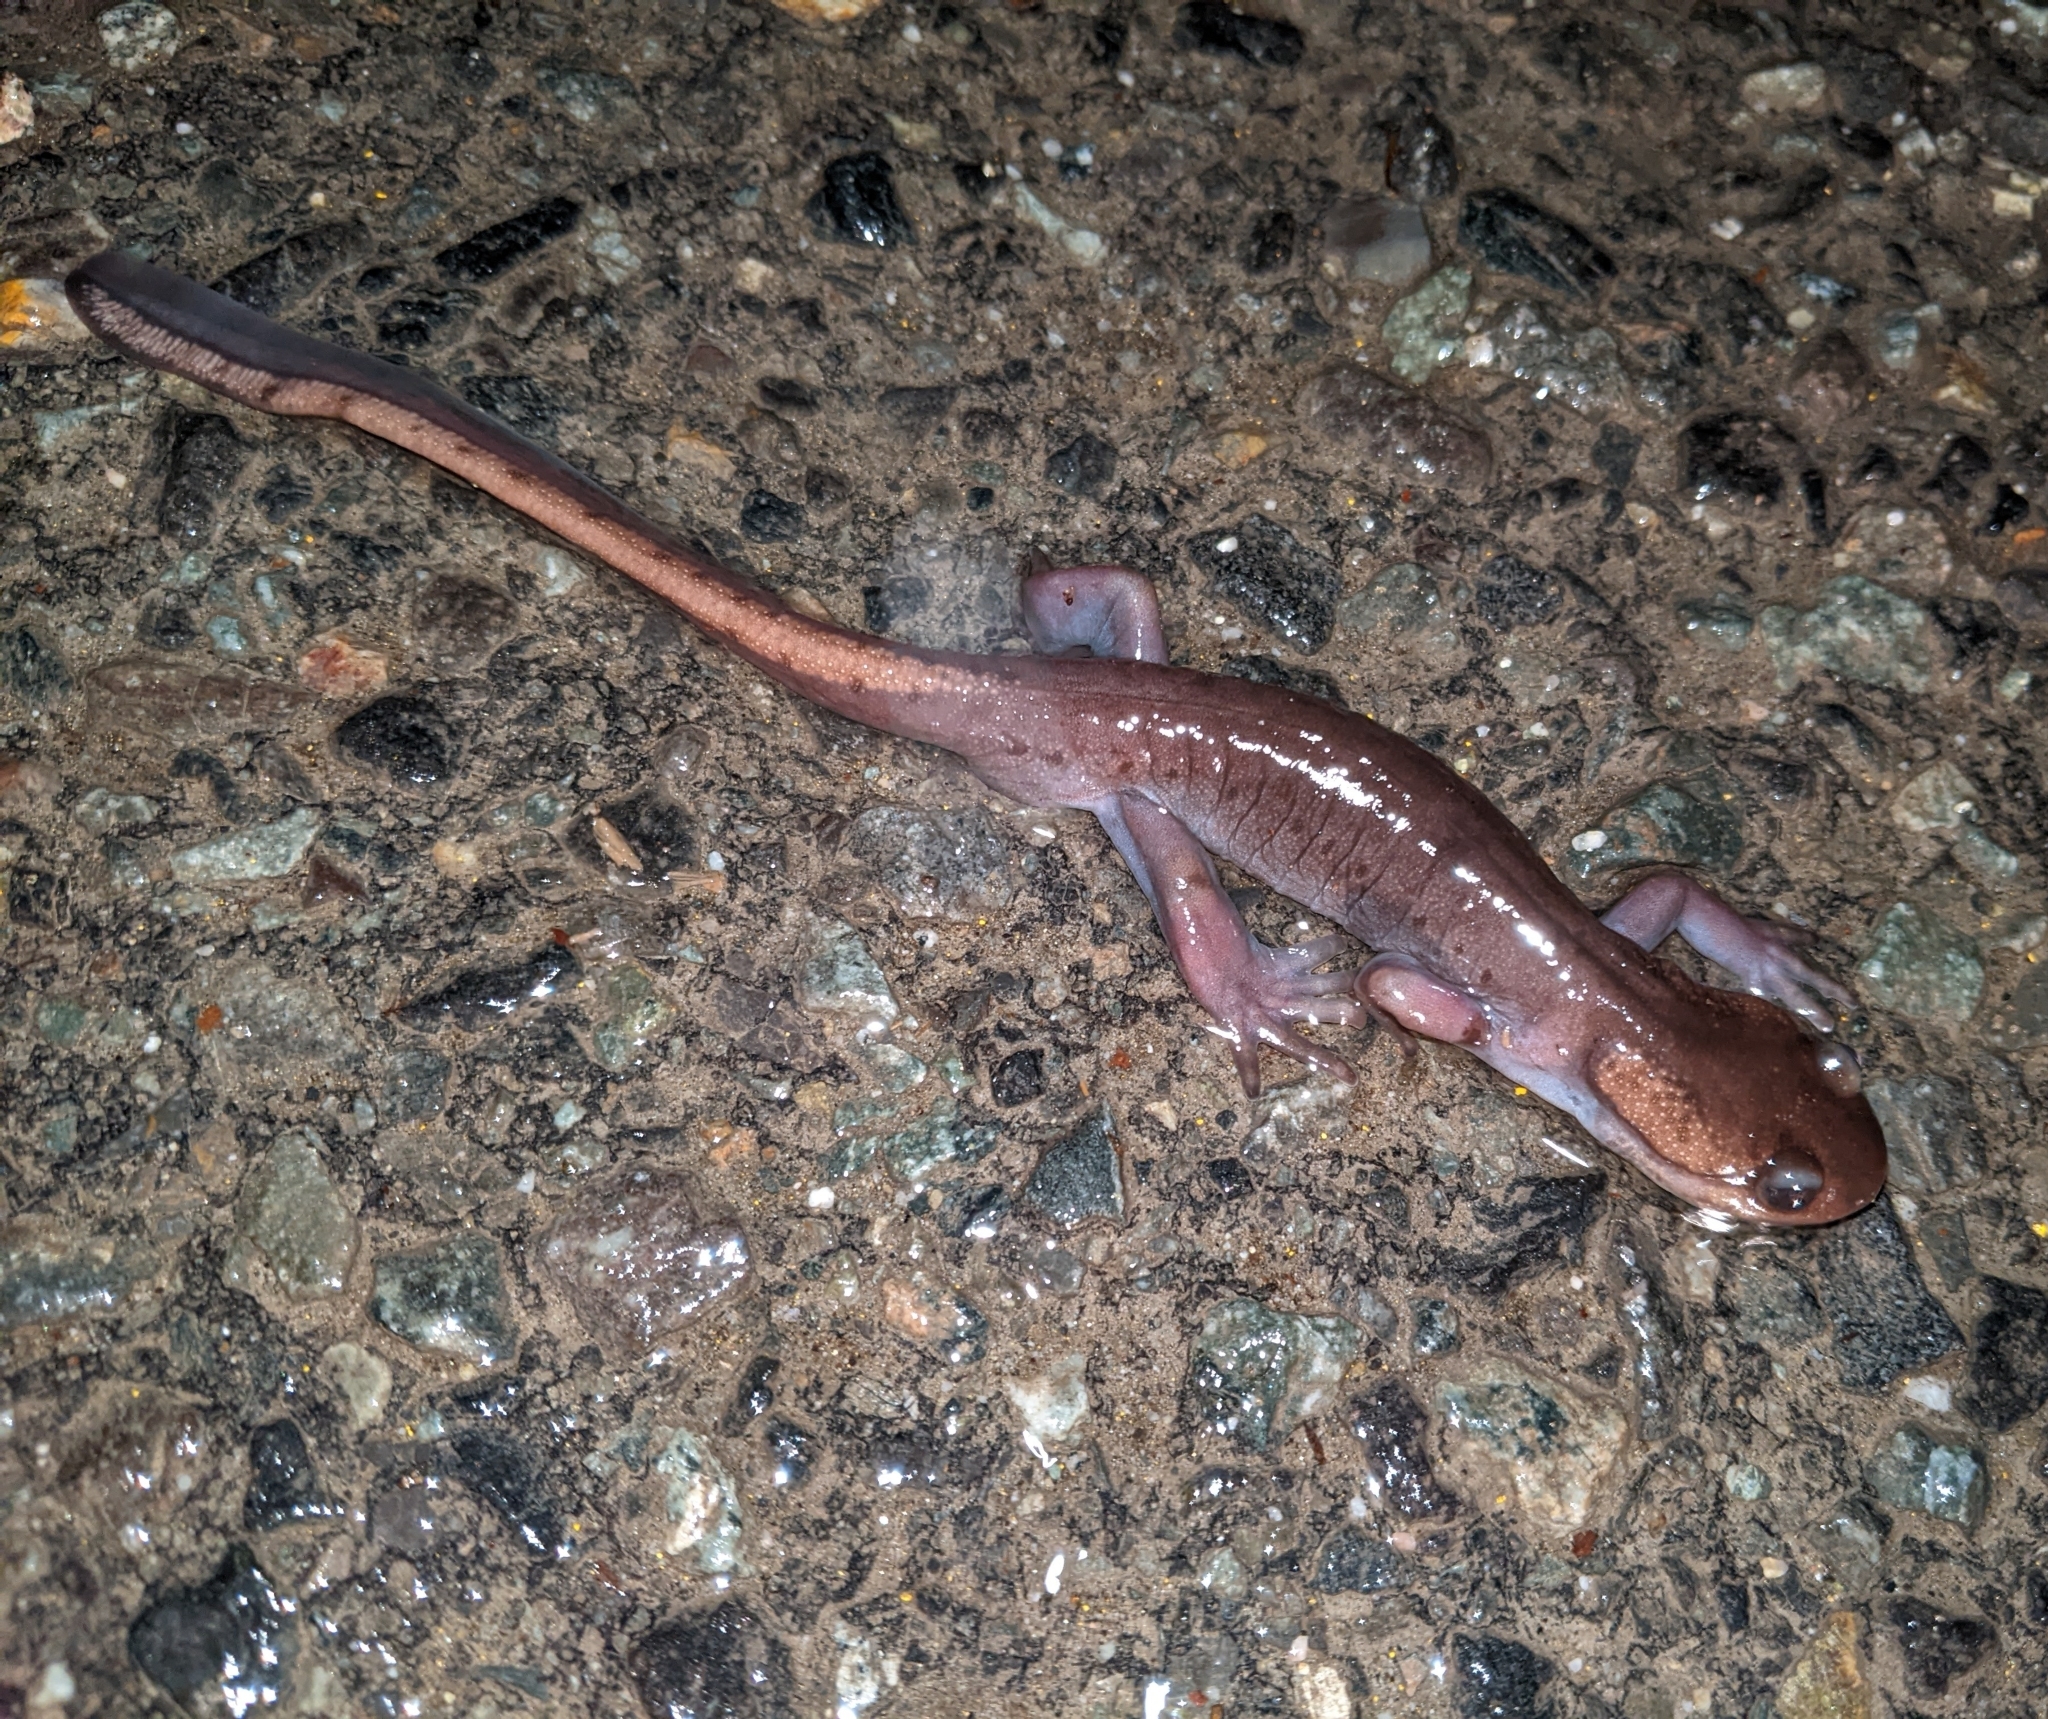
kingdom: Animalia
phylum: Chordata
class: Amphibia
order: Caudata
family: Ambystomatidae
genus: Ambystoma
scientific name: Ambystoma gracile
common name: Northwestern salamander
